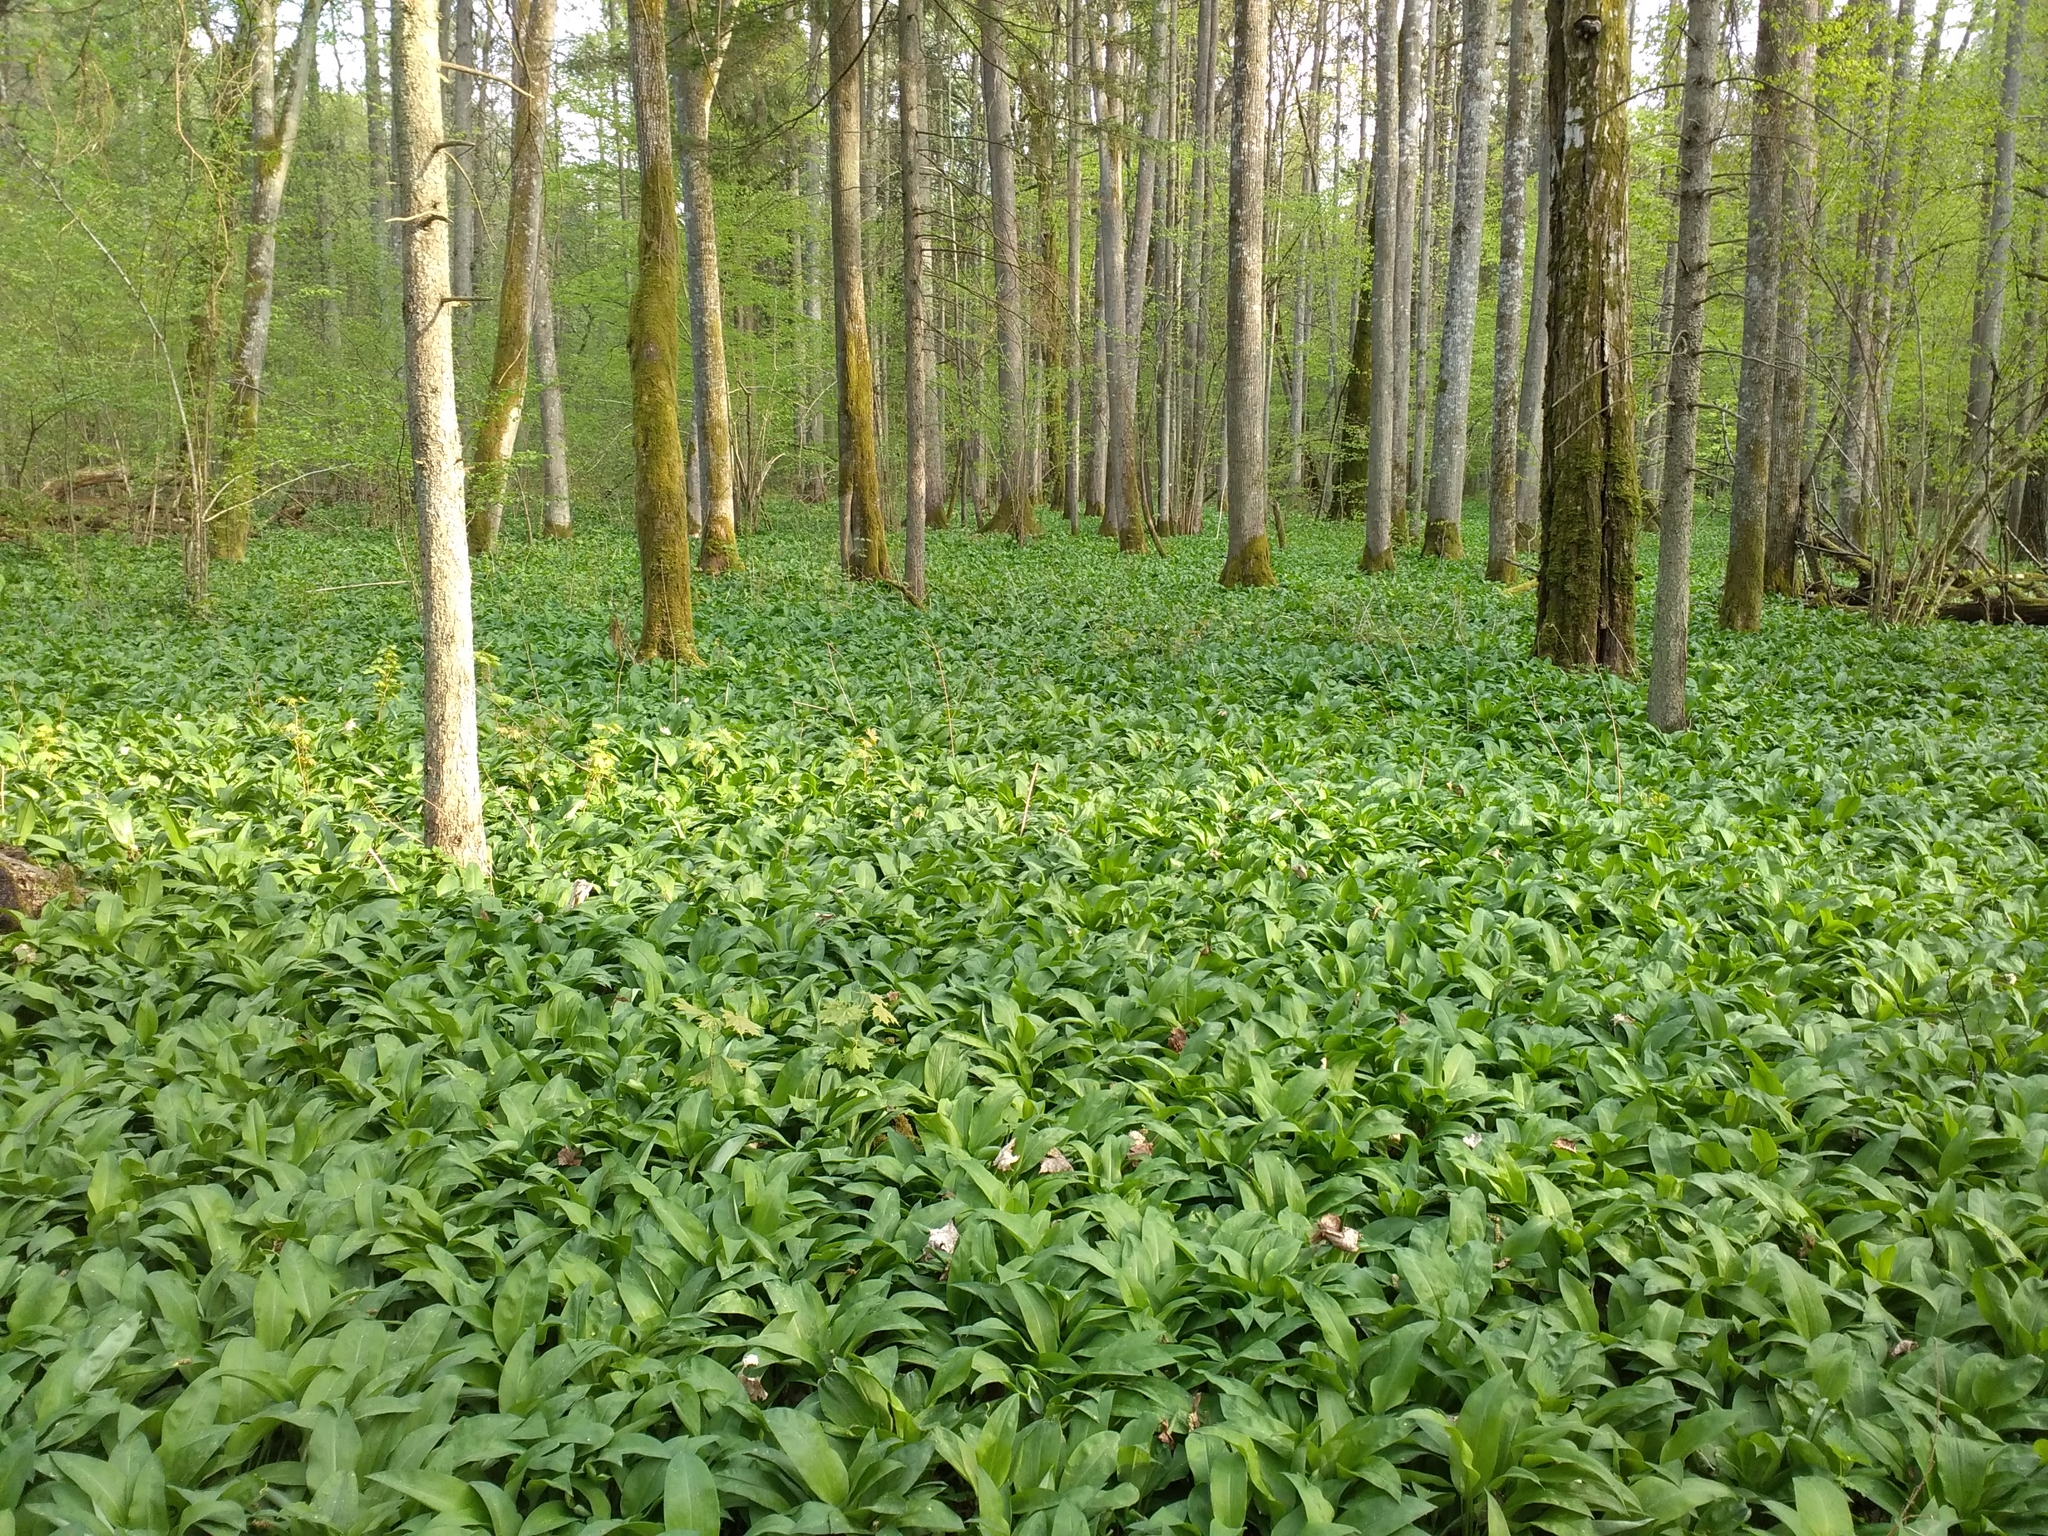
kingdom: Plantae
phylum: Tracheophyta
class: Liliopsida
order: Asparagales
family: Amaryllidaceae
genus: Allium
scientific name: Allium ursinum
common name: Ramsons
